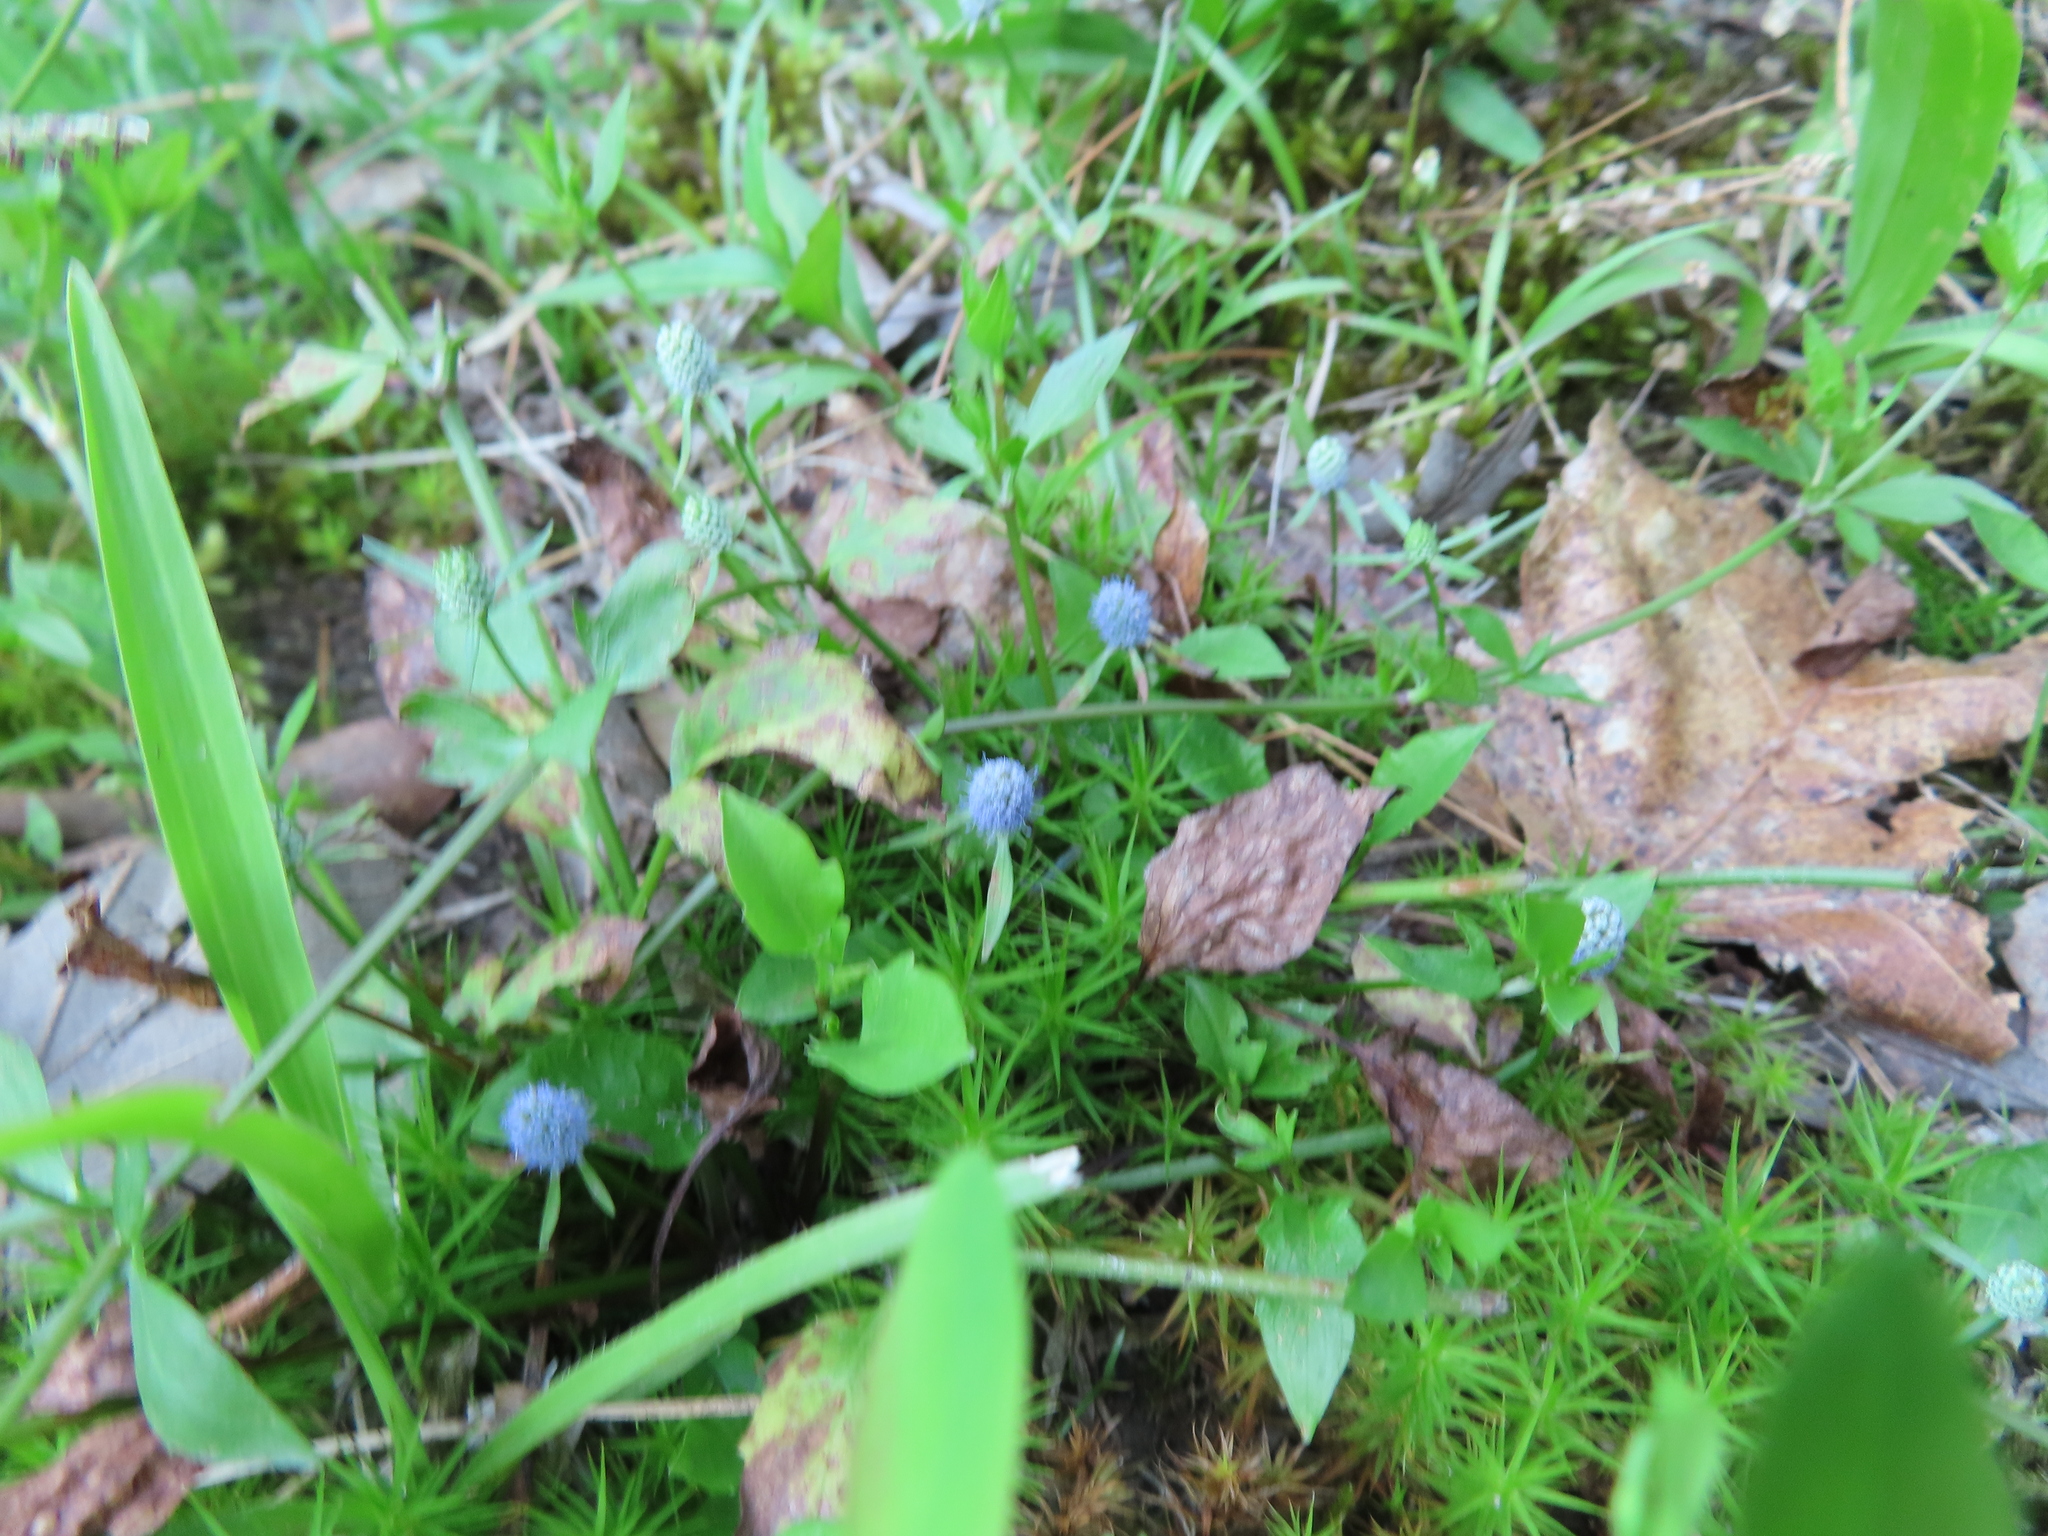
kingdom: Plantae
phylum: Tracheophyta
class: Magnoliopsida
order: Apiales
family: Apiaceae
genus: Eryngium
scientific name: Eryngium prostratum
